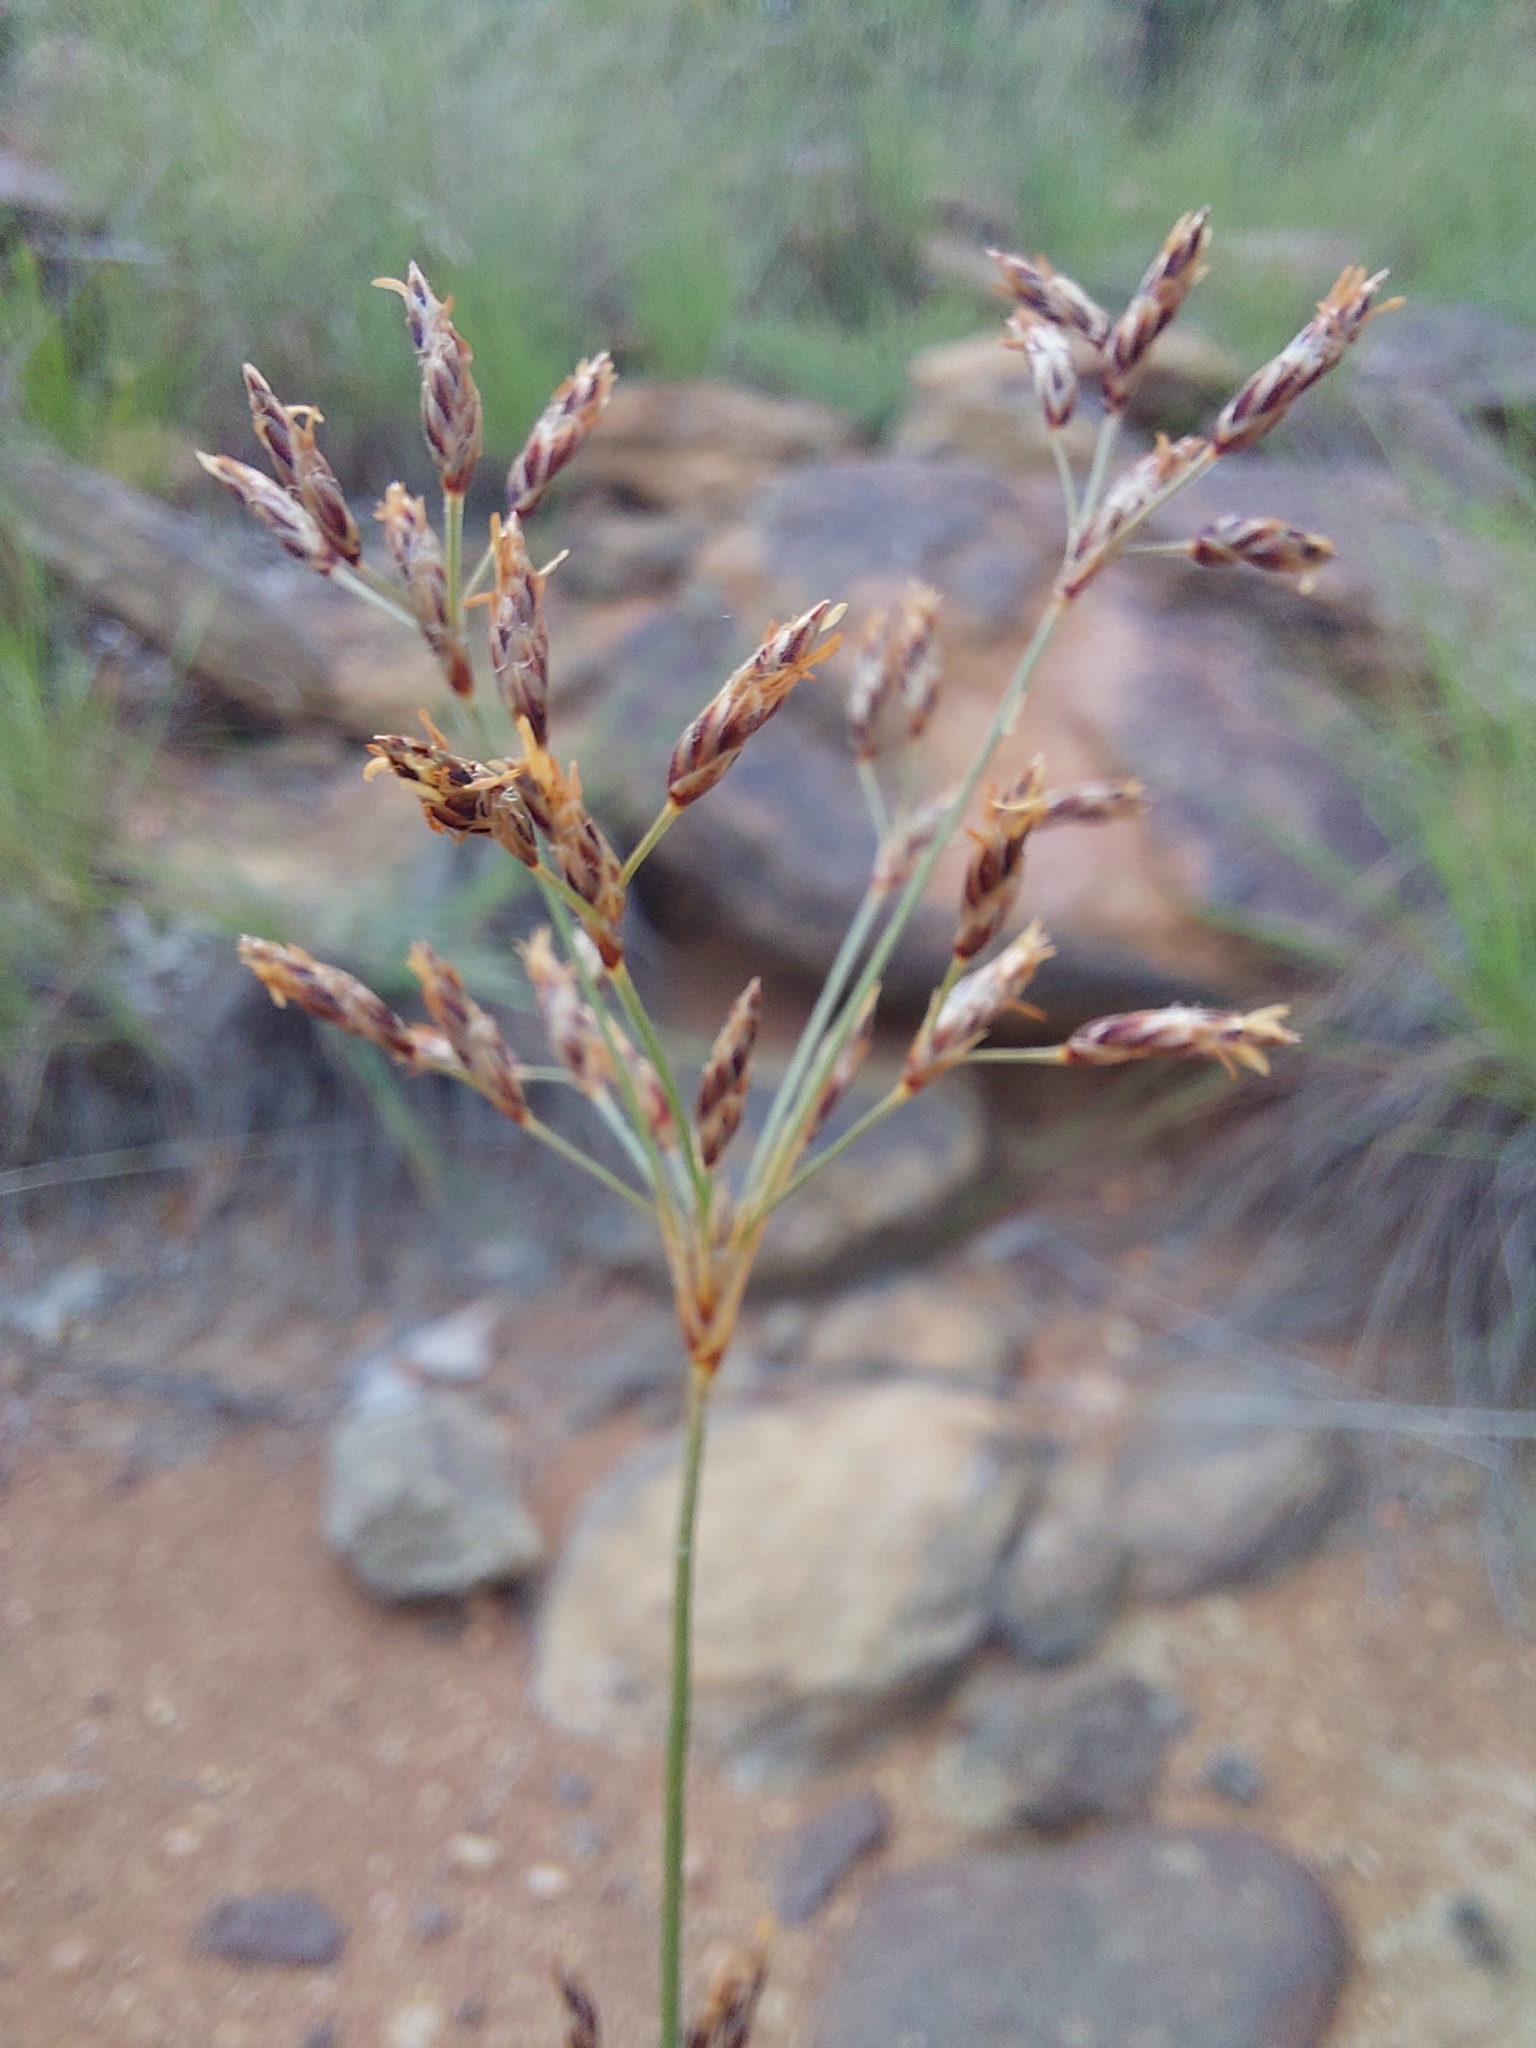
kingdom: Plantae
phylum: Tracheophyta
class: Liliopsida
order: Poales
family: Cyperaceae
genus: Bulbostylis
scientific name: Bulbostylis burchellii
